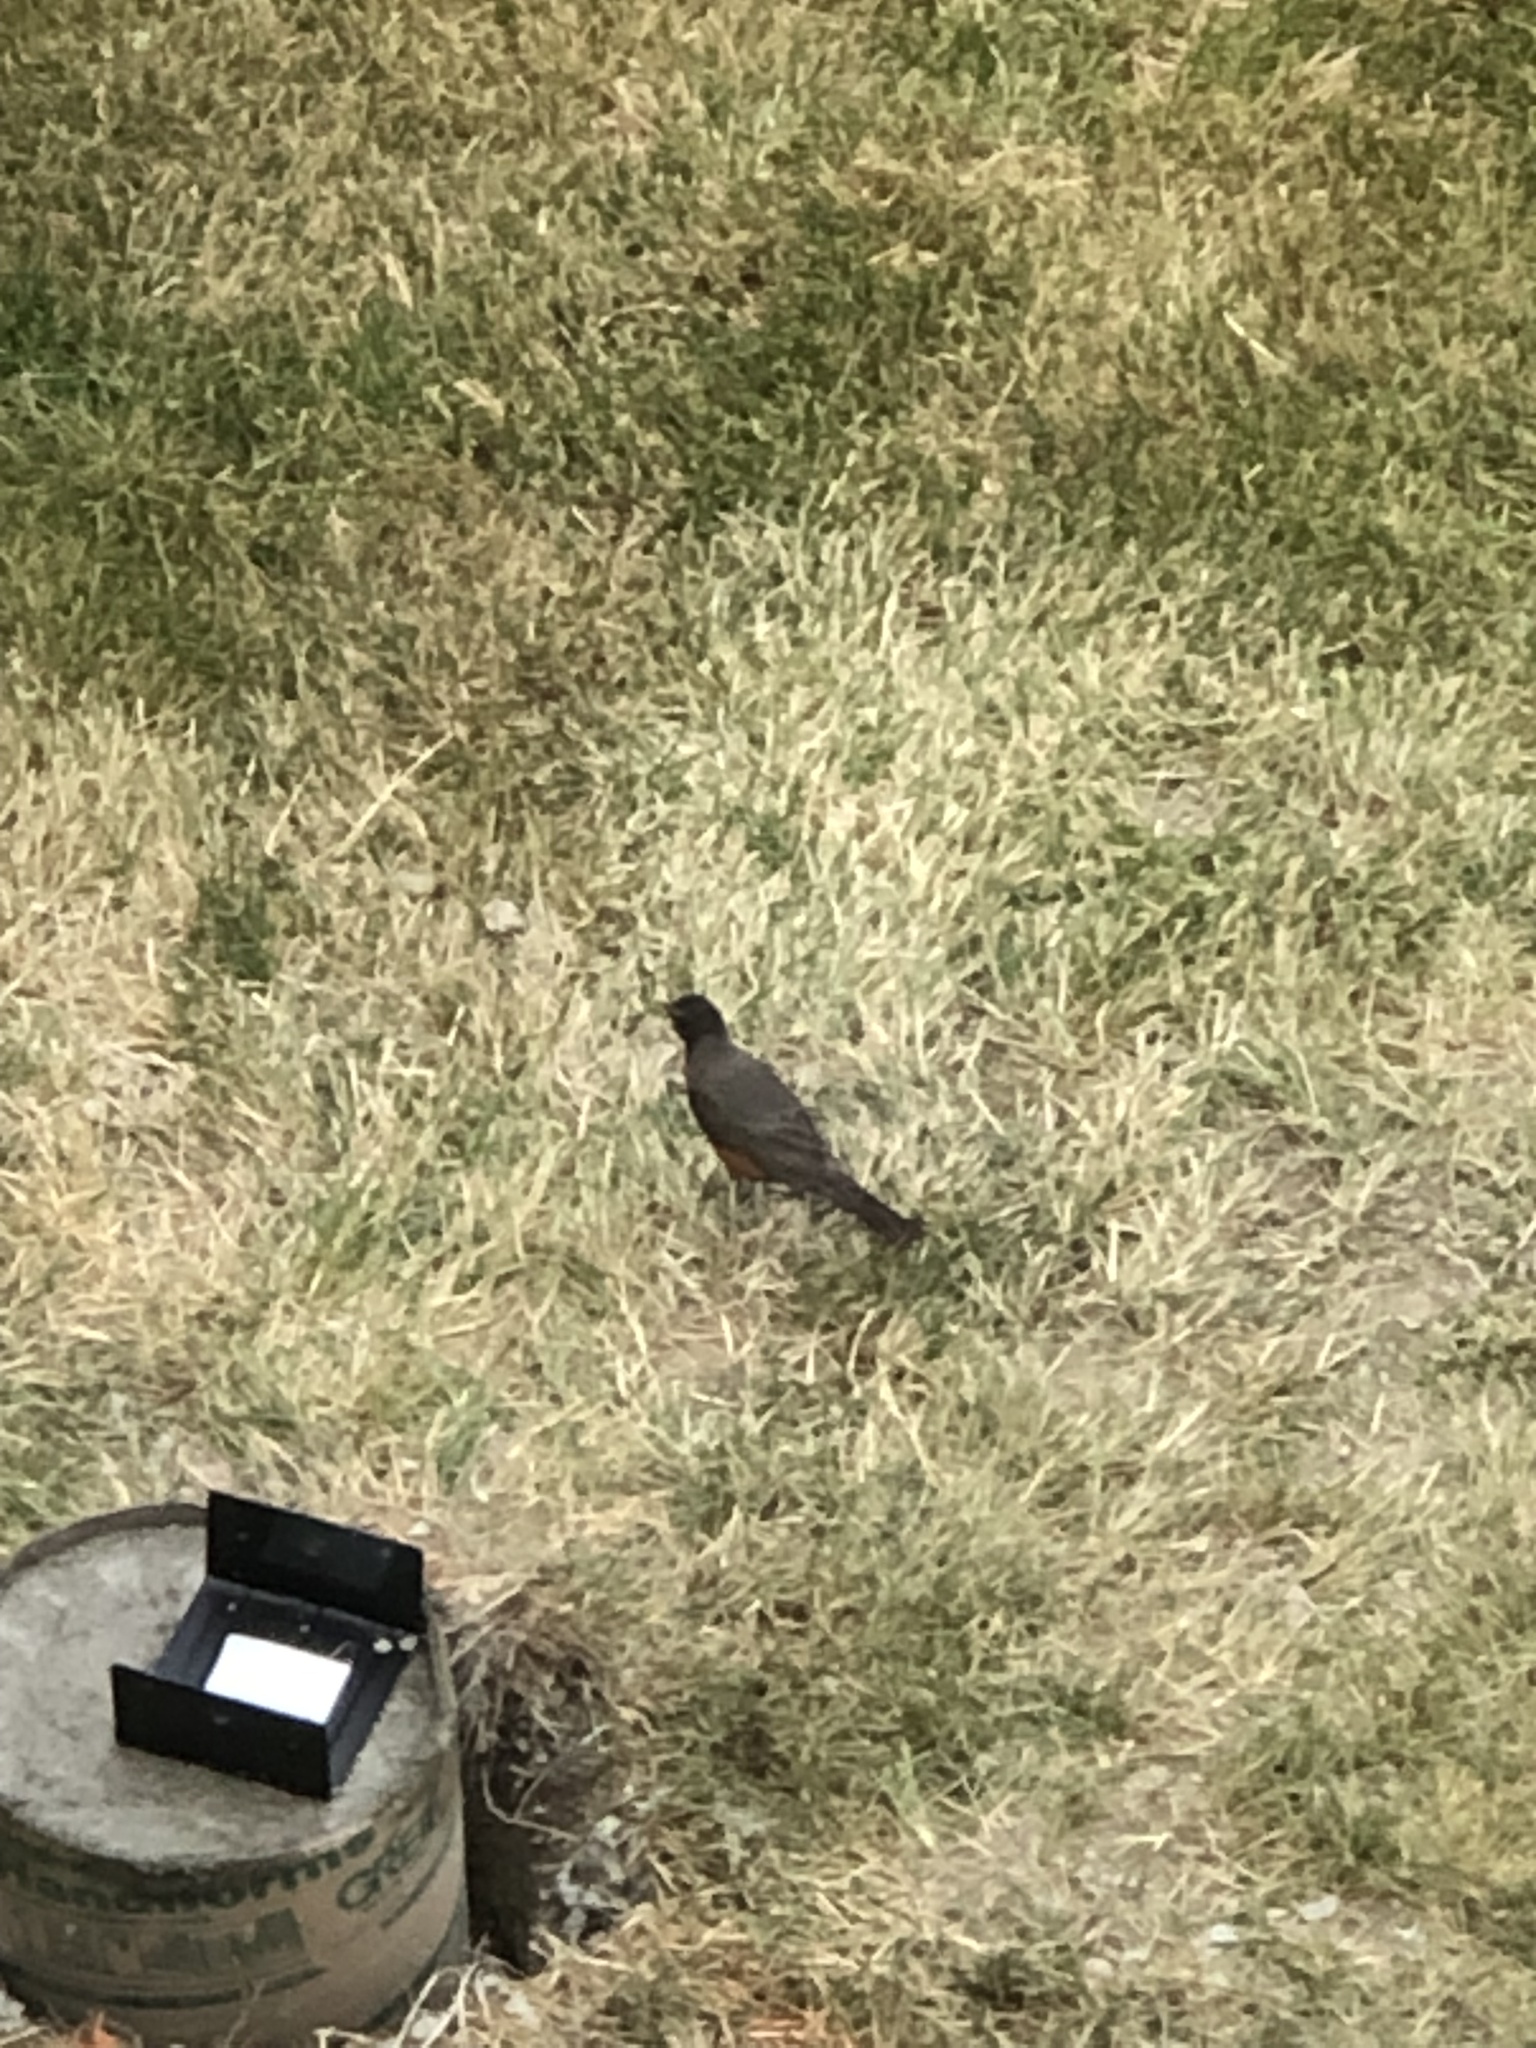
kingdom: Animalia
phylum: Chordata
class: Aves
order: Passeriformes
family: Turdidae
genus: Turdus
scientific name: Turdus migratorius
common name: American robin
